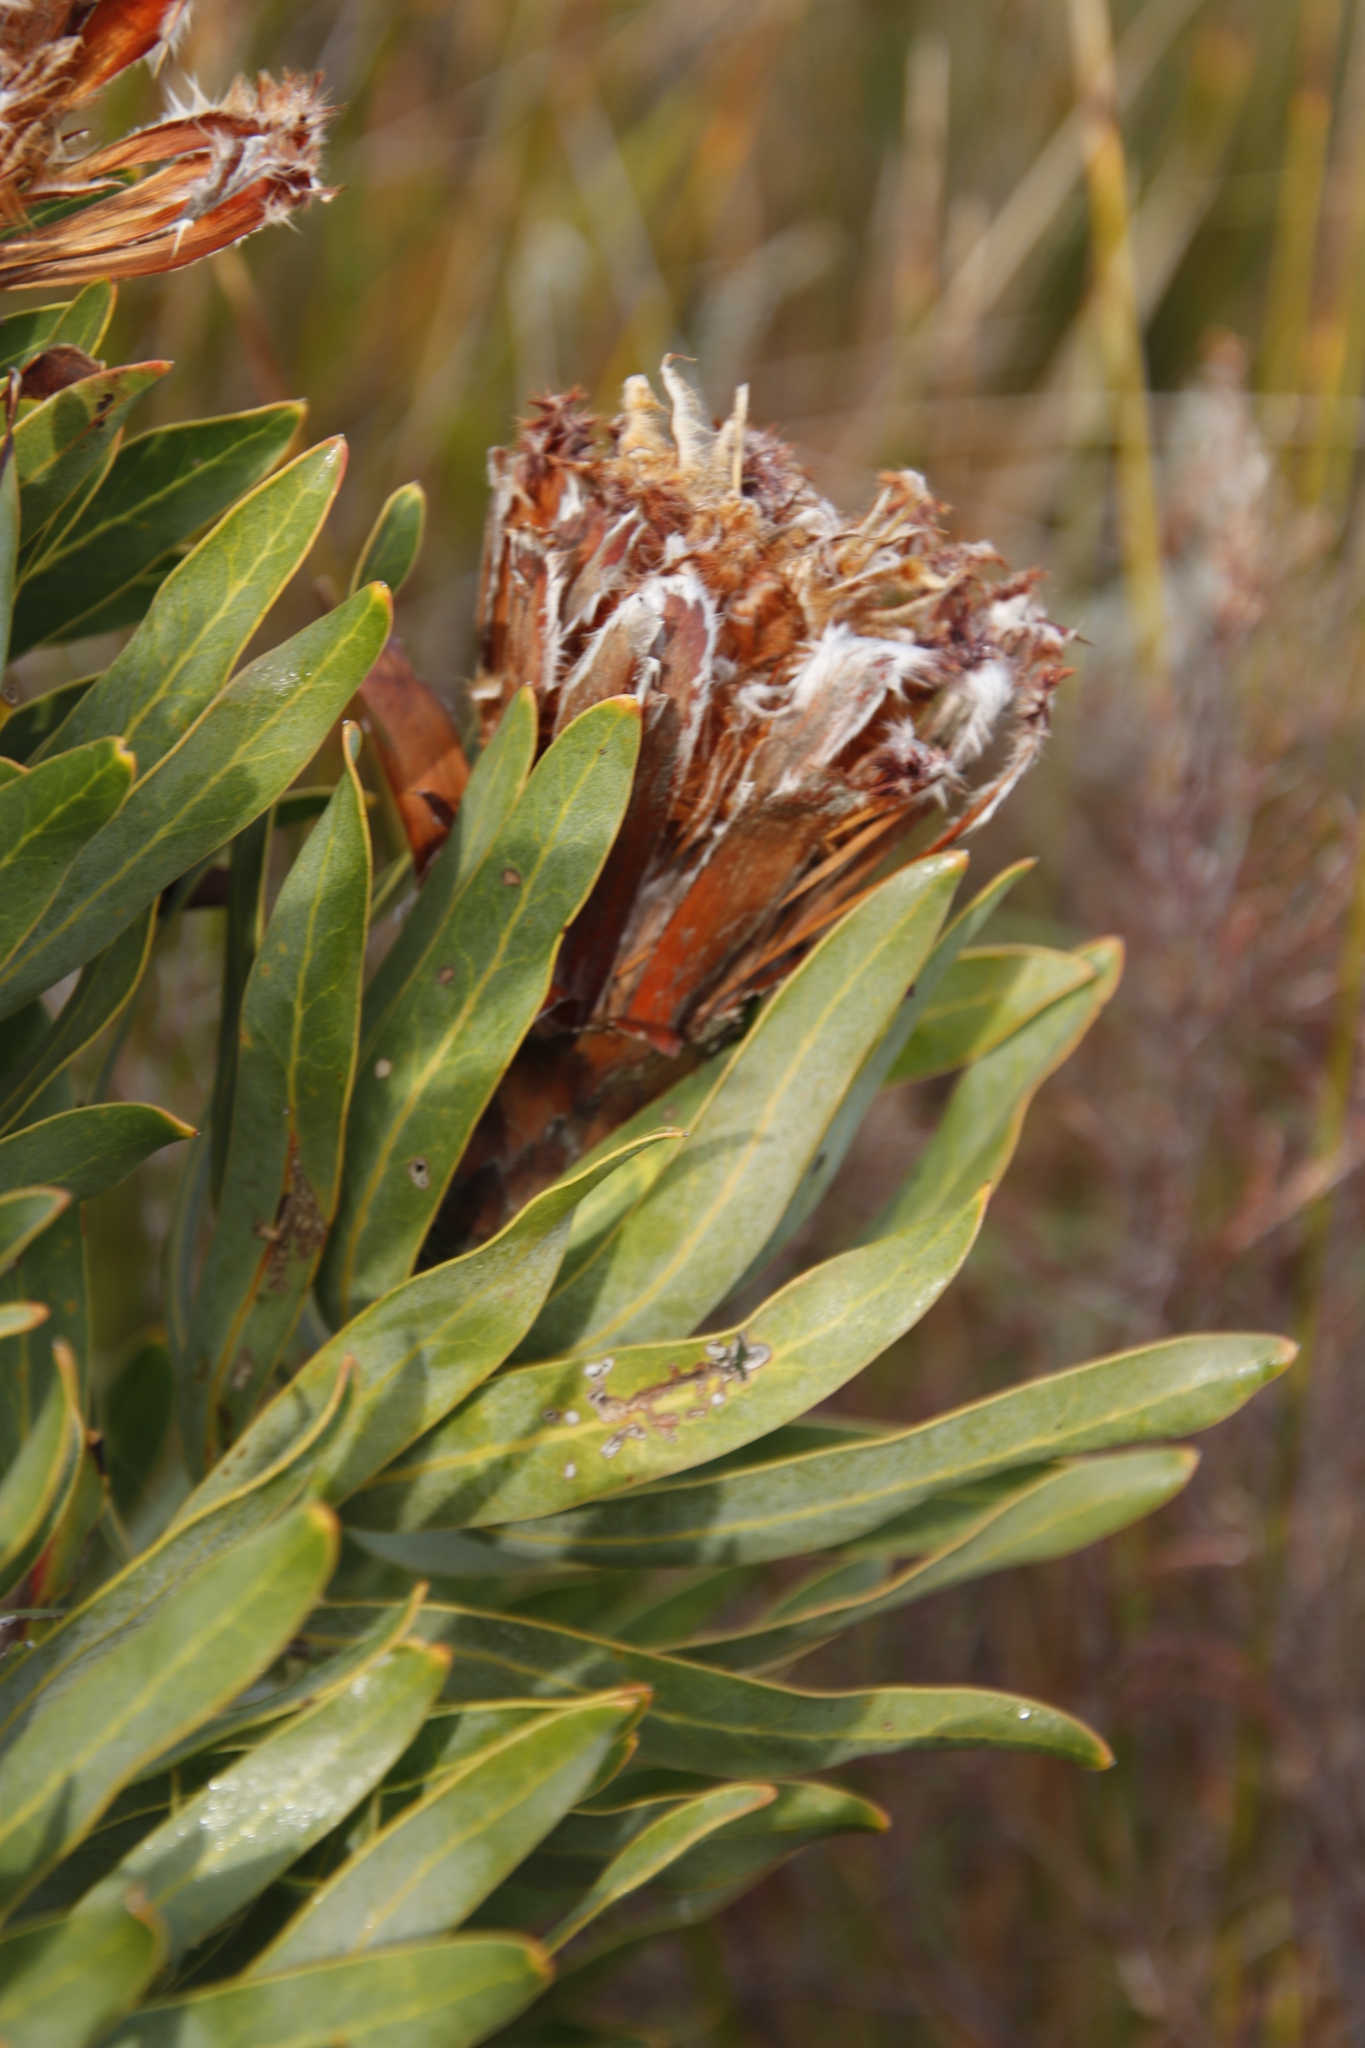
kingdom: Plantae
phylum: Tracheophyta
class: Magnoliopsida
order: Proteales
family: Proteaceae
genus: Protea
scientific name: Protea laurifolia
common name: Grey-leaf sugarbsh
